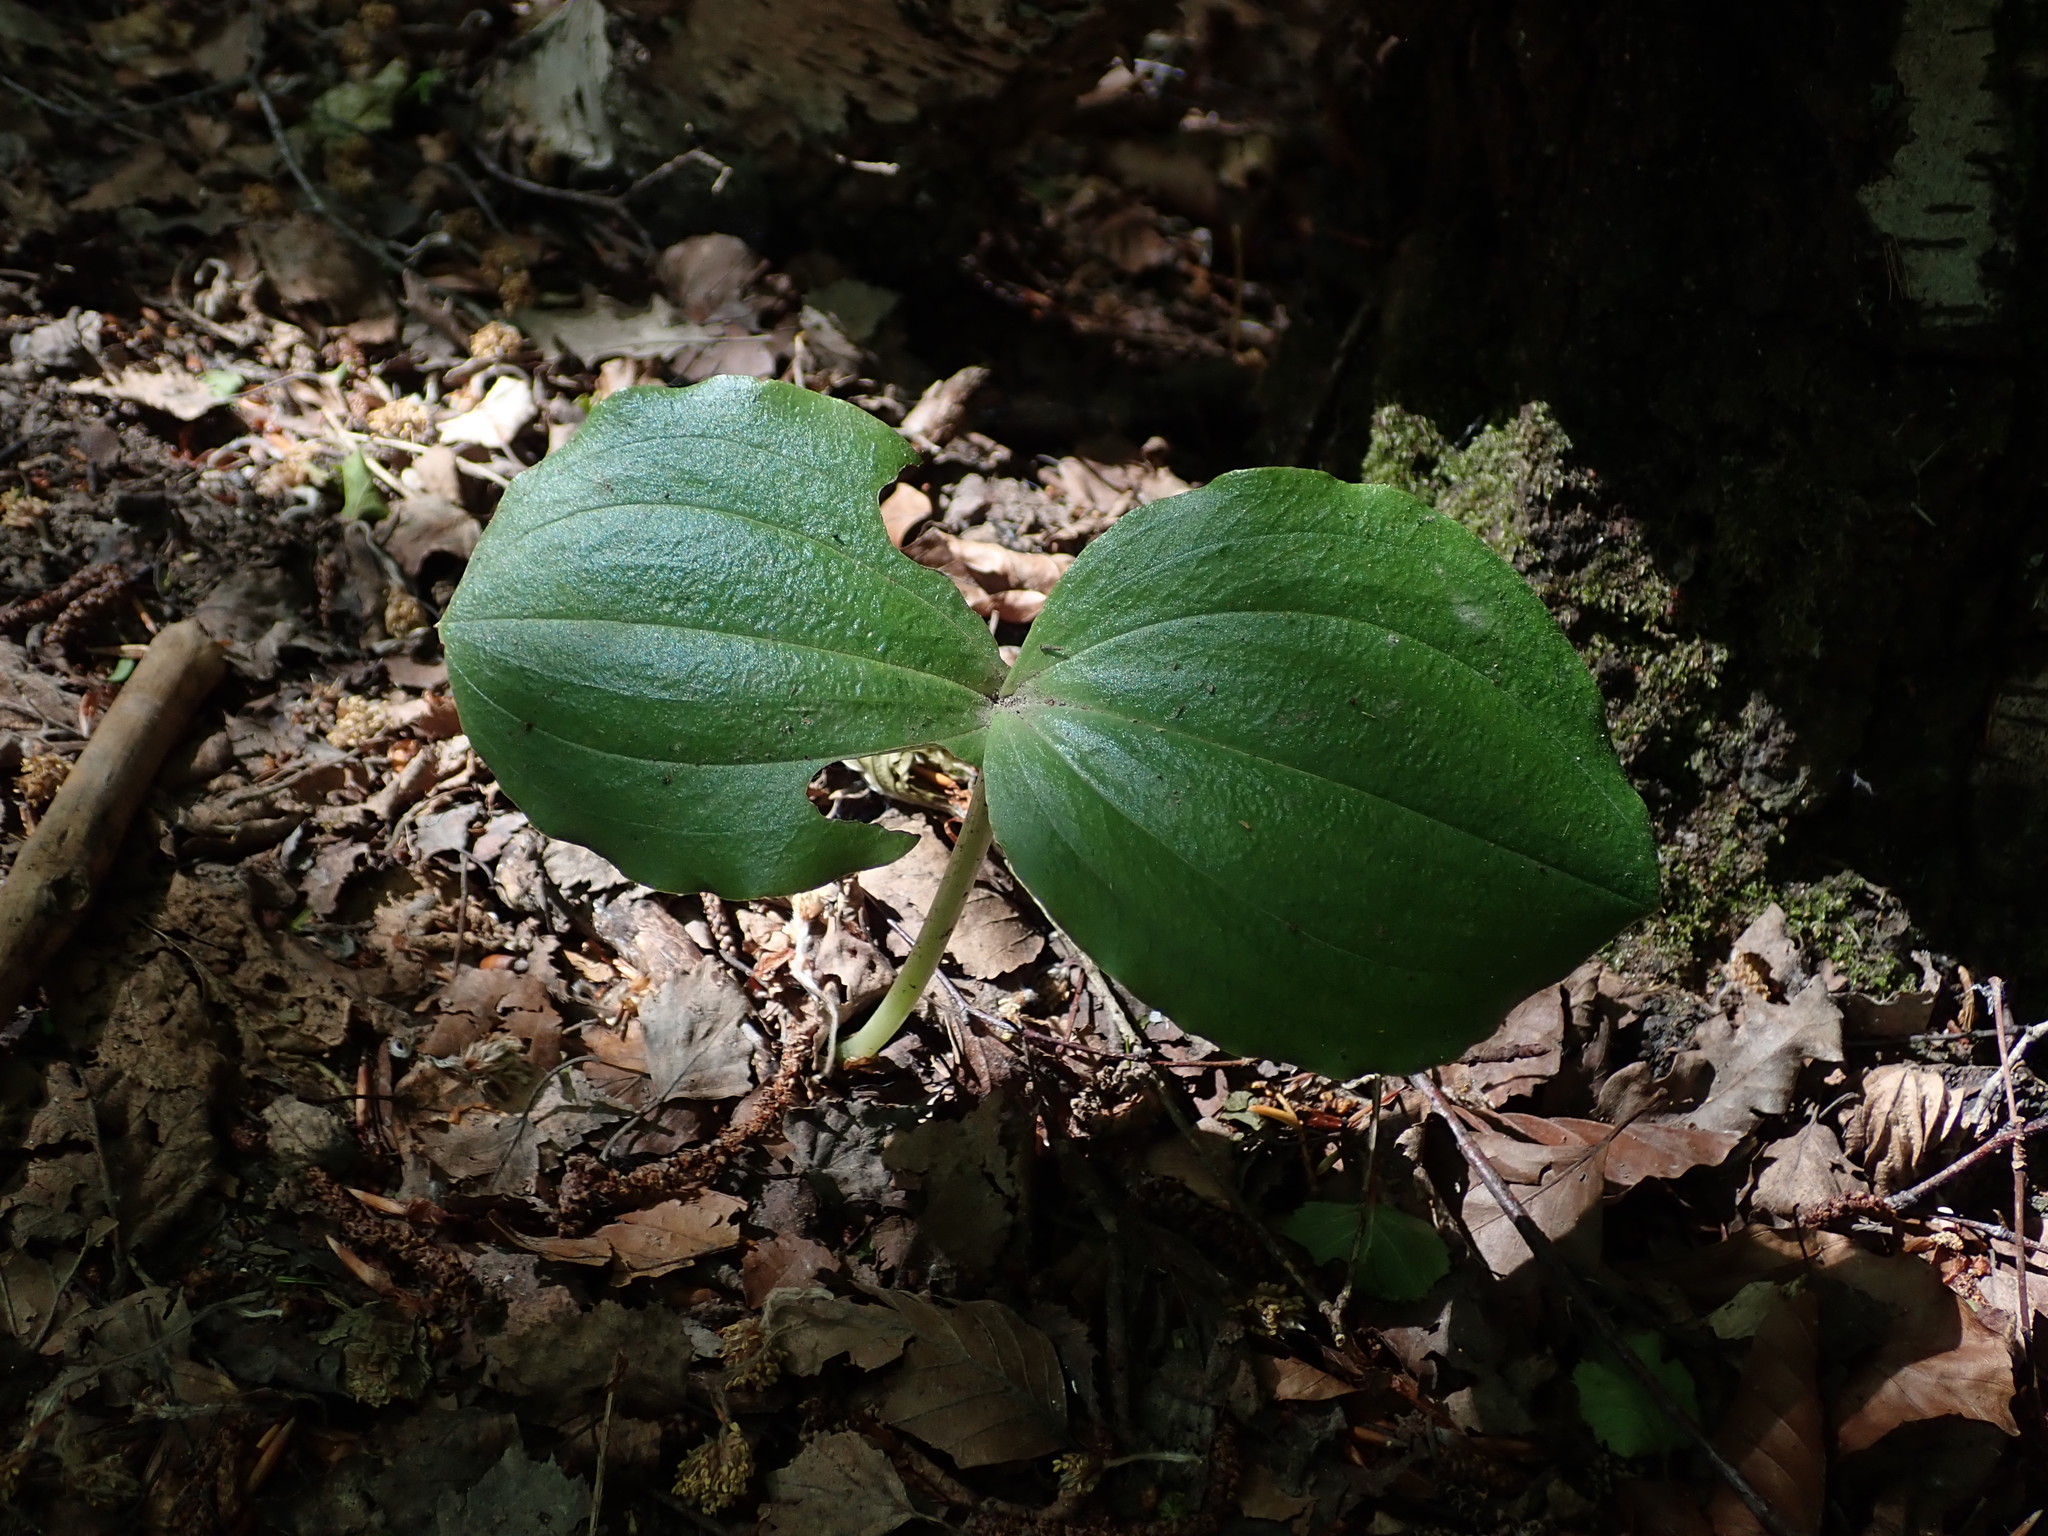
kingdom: Plantae
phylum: Tracheophyta
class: Liliopsida
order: Asparagales
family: Orchidaceae
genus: Neottia
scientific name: Neottia ovata
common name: Common twayblade
